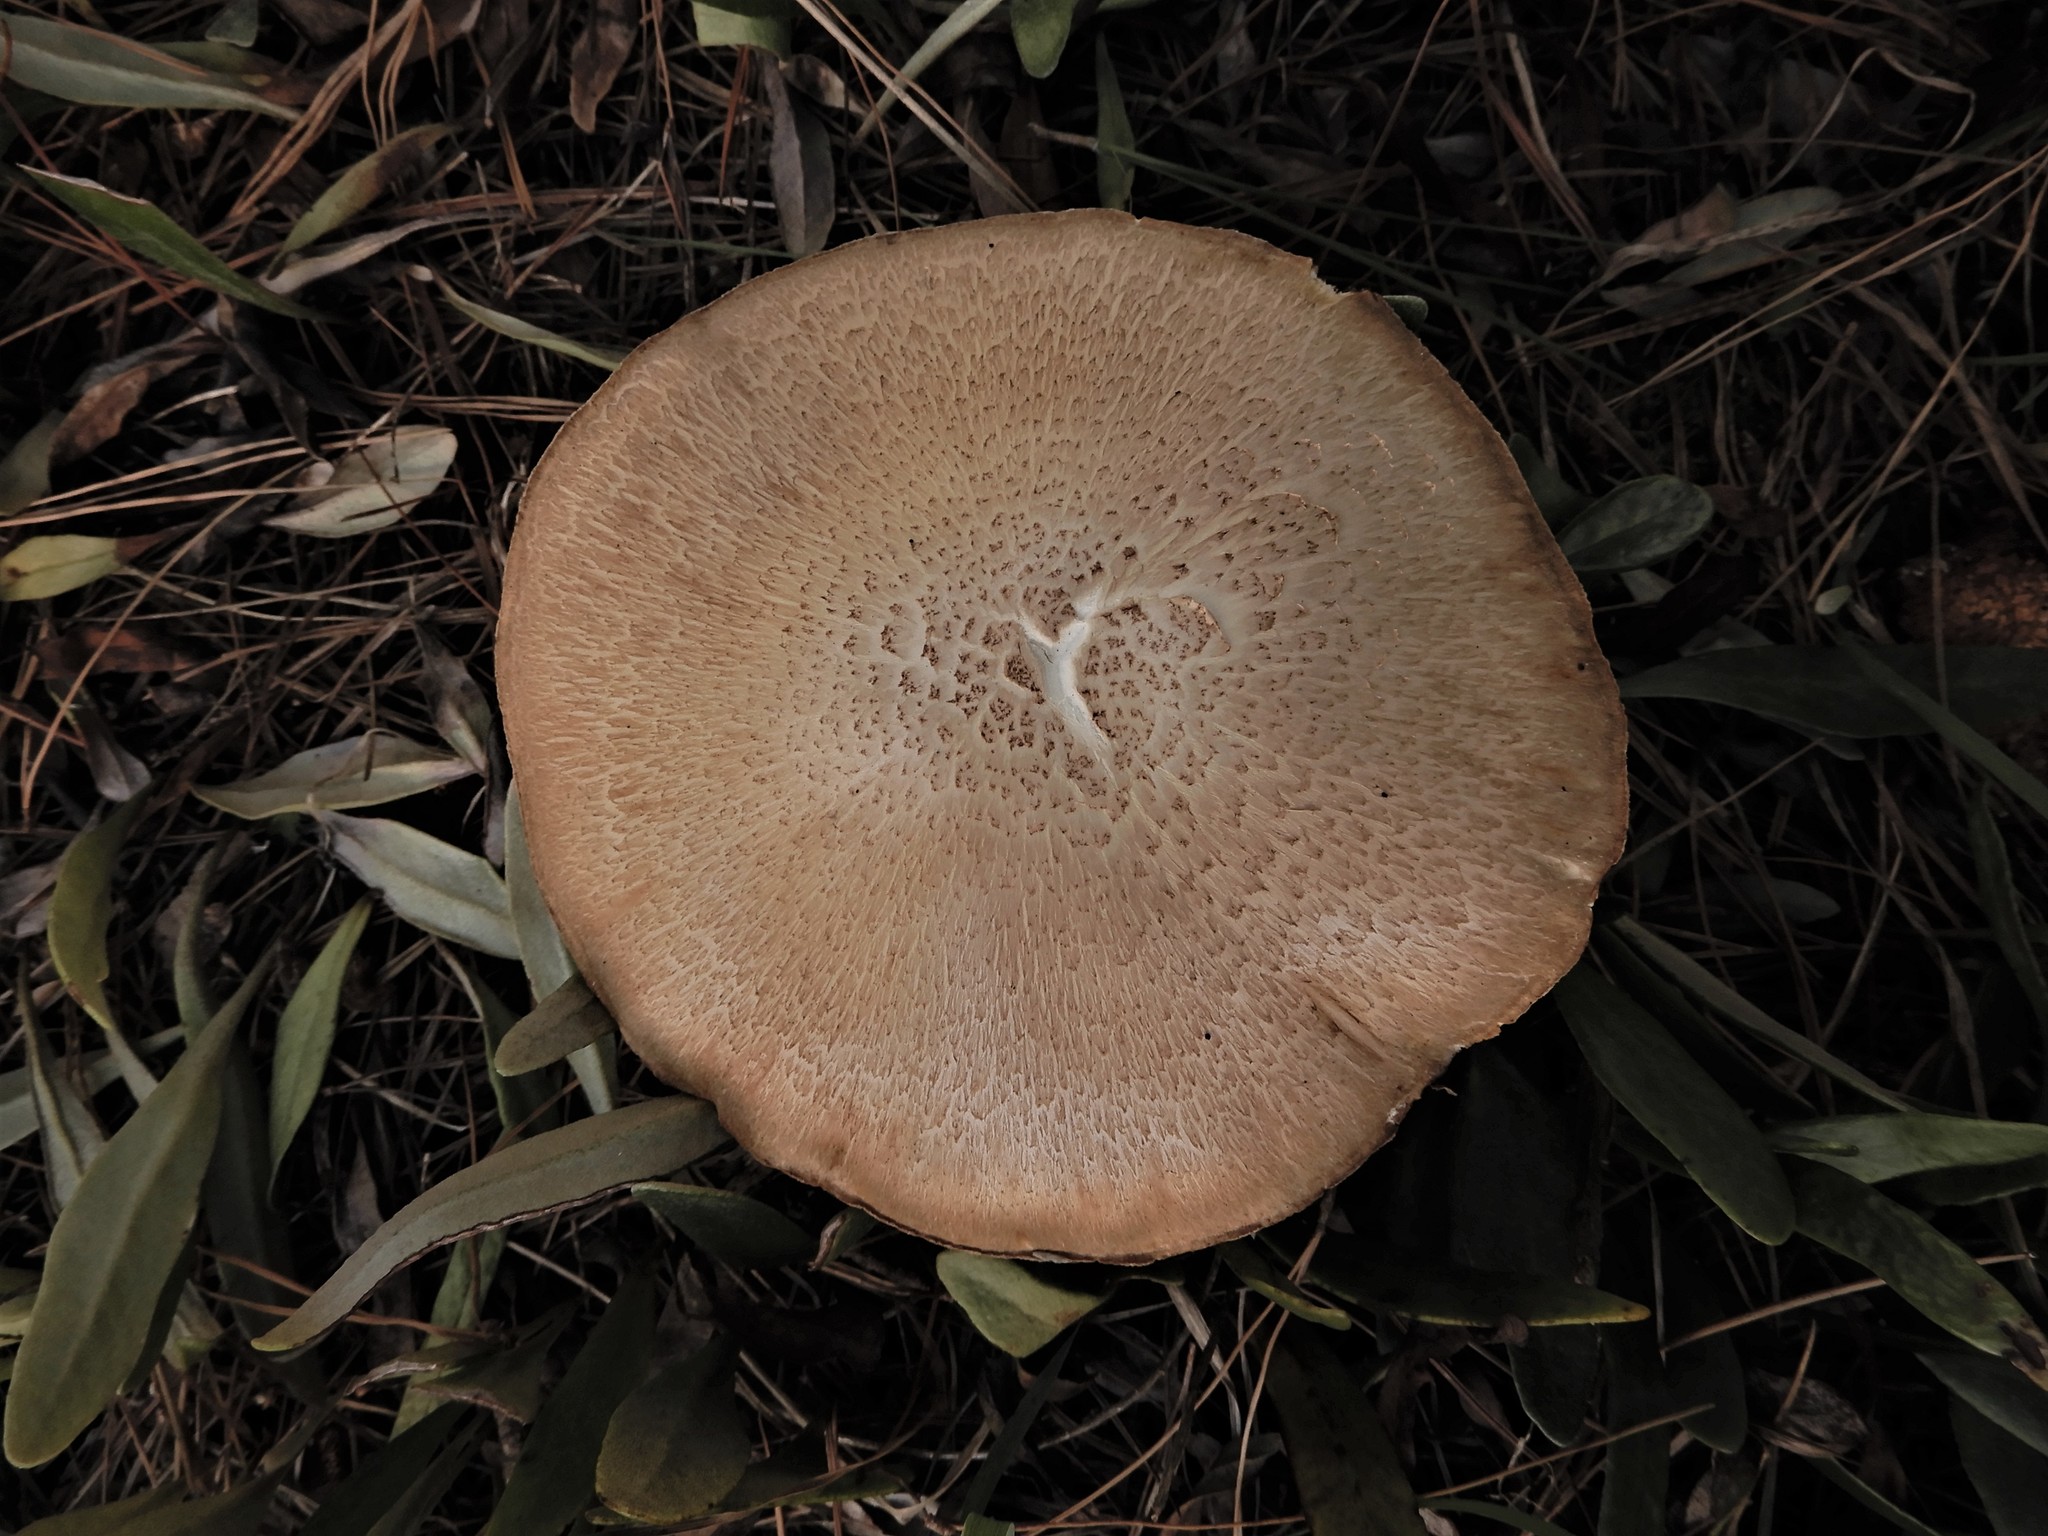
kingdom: Fungi
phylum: Basidiomycota
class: Agaricomycetes
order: Gloeophyllales
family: Gloeophyllaceae
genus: Neolentinus
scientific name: Neolentinus lepideus
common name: Scaly sawgill
